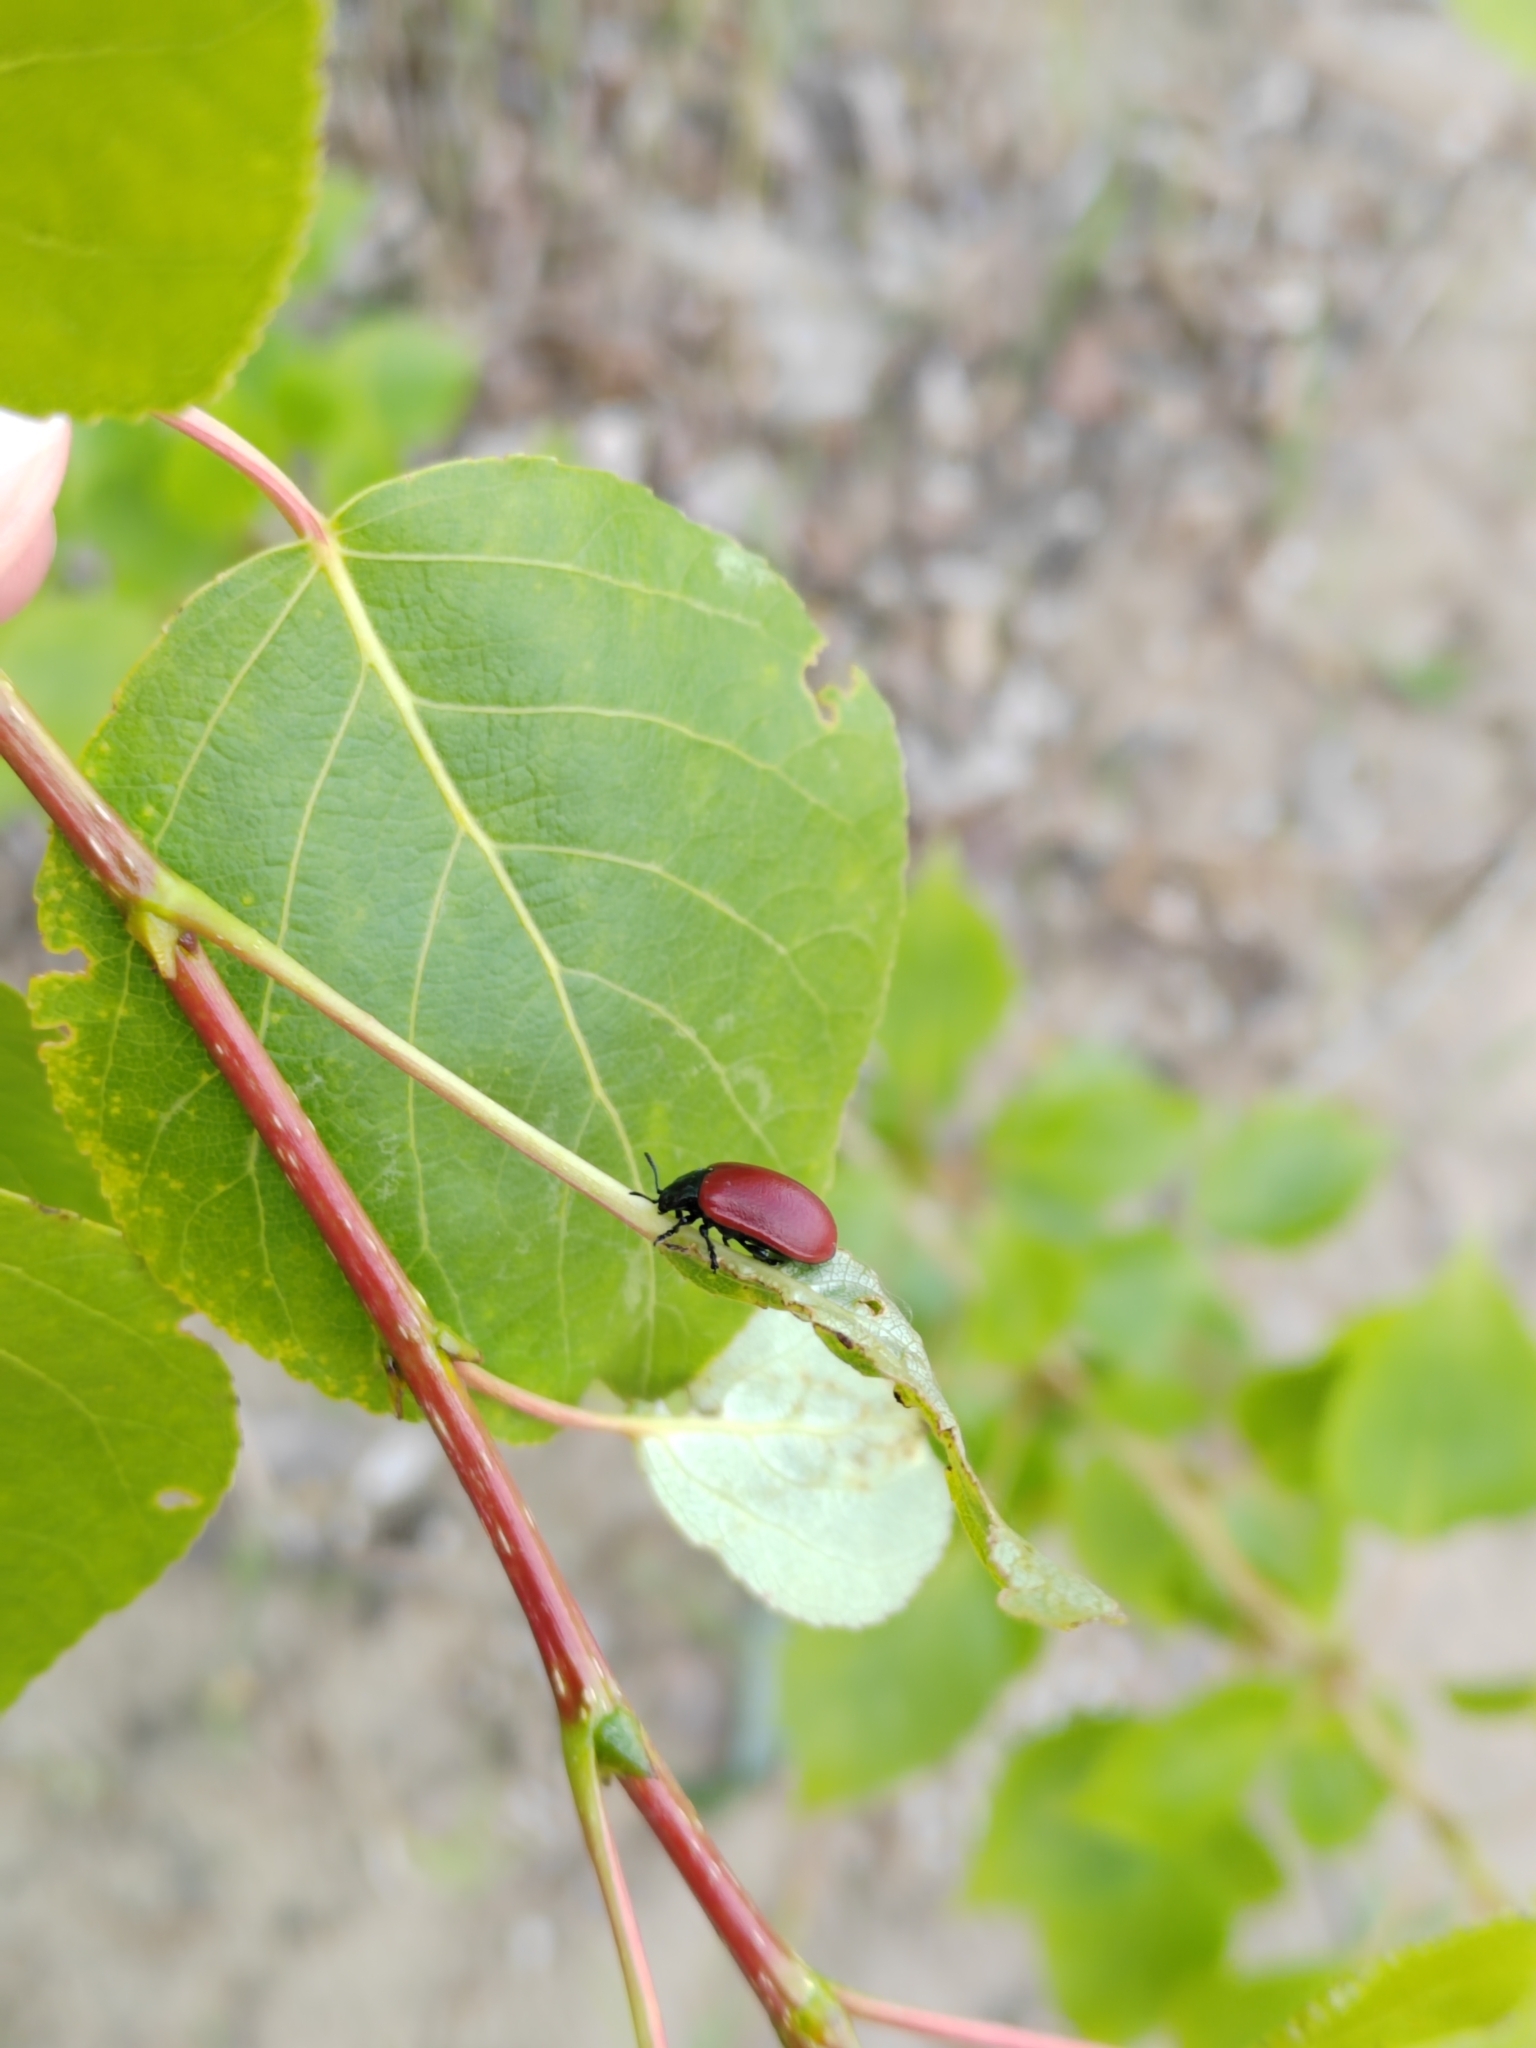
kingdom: Animalia
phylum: Arthropoda
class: Insecta
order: Coleoptera
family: Chrysomelidae
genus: Chrysomela
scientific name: Chrysomela populi
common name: Red poplar leaf beetle
